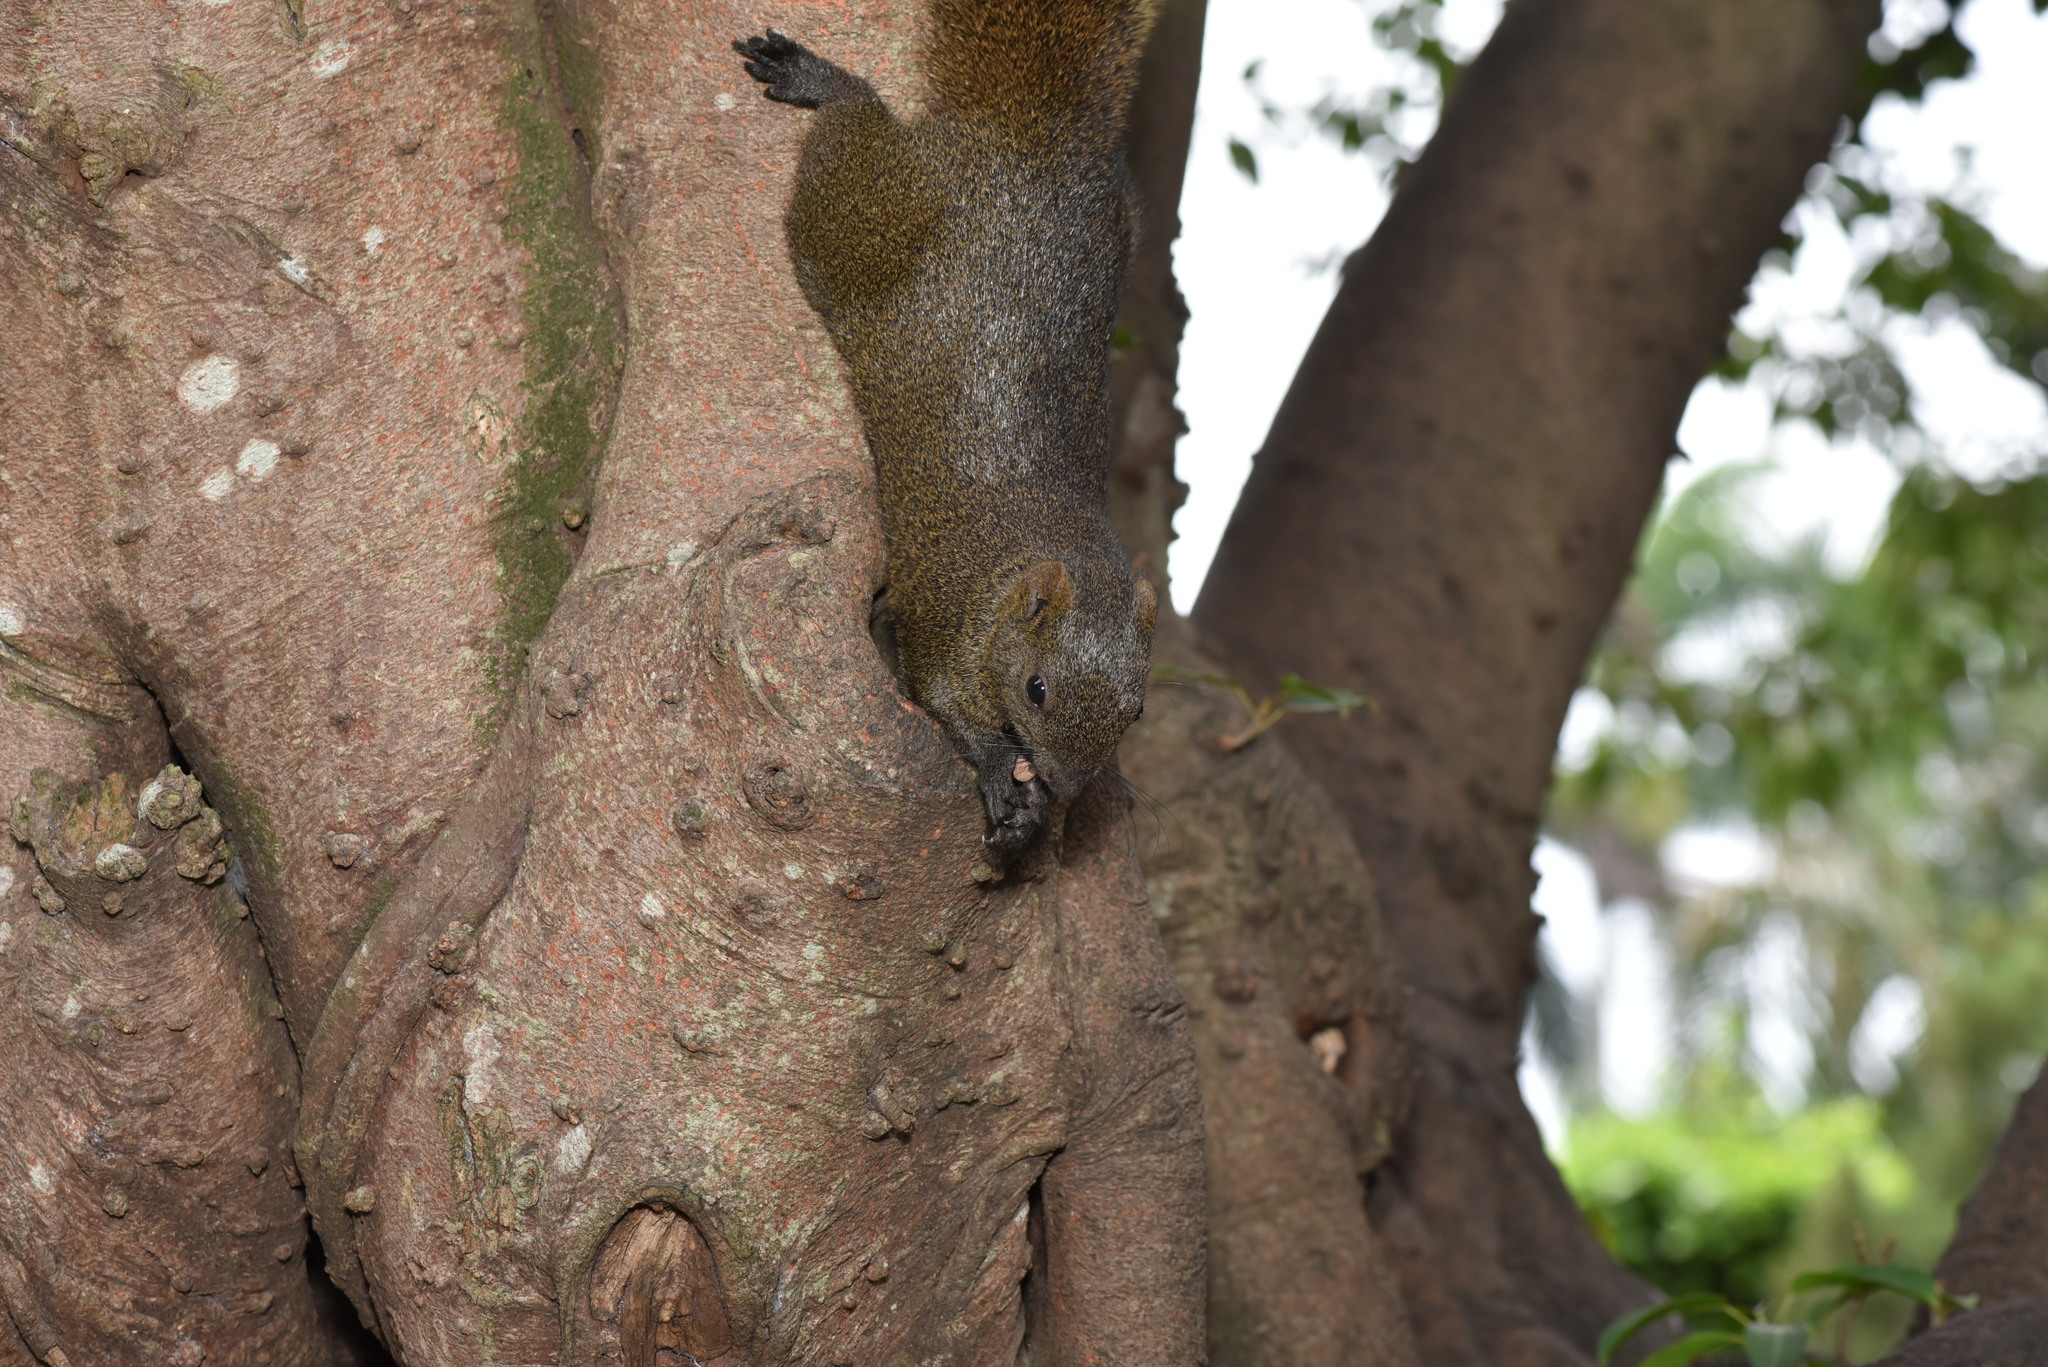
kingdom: Animalia
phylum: Chordata
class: Mammalia
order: Rodentia
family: Sciuridae
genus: Callosciurus
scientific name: Callosciurus erythraeus
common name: Pallas's squirrel
